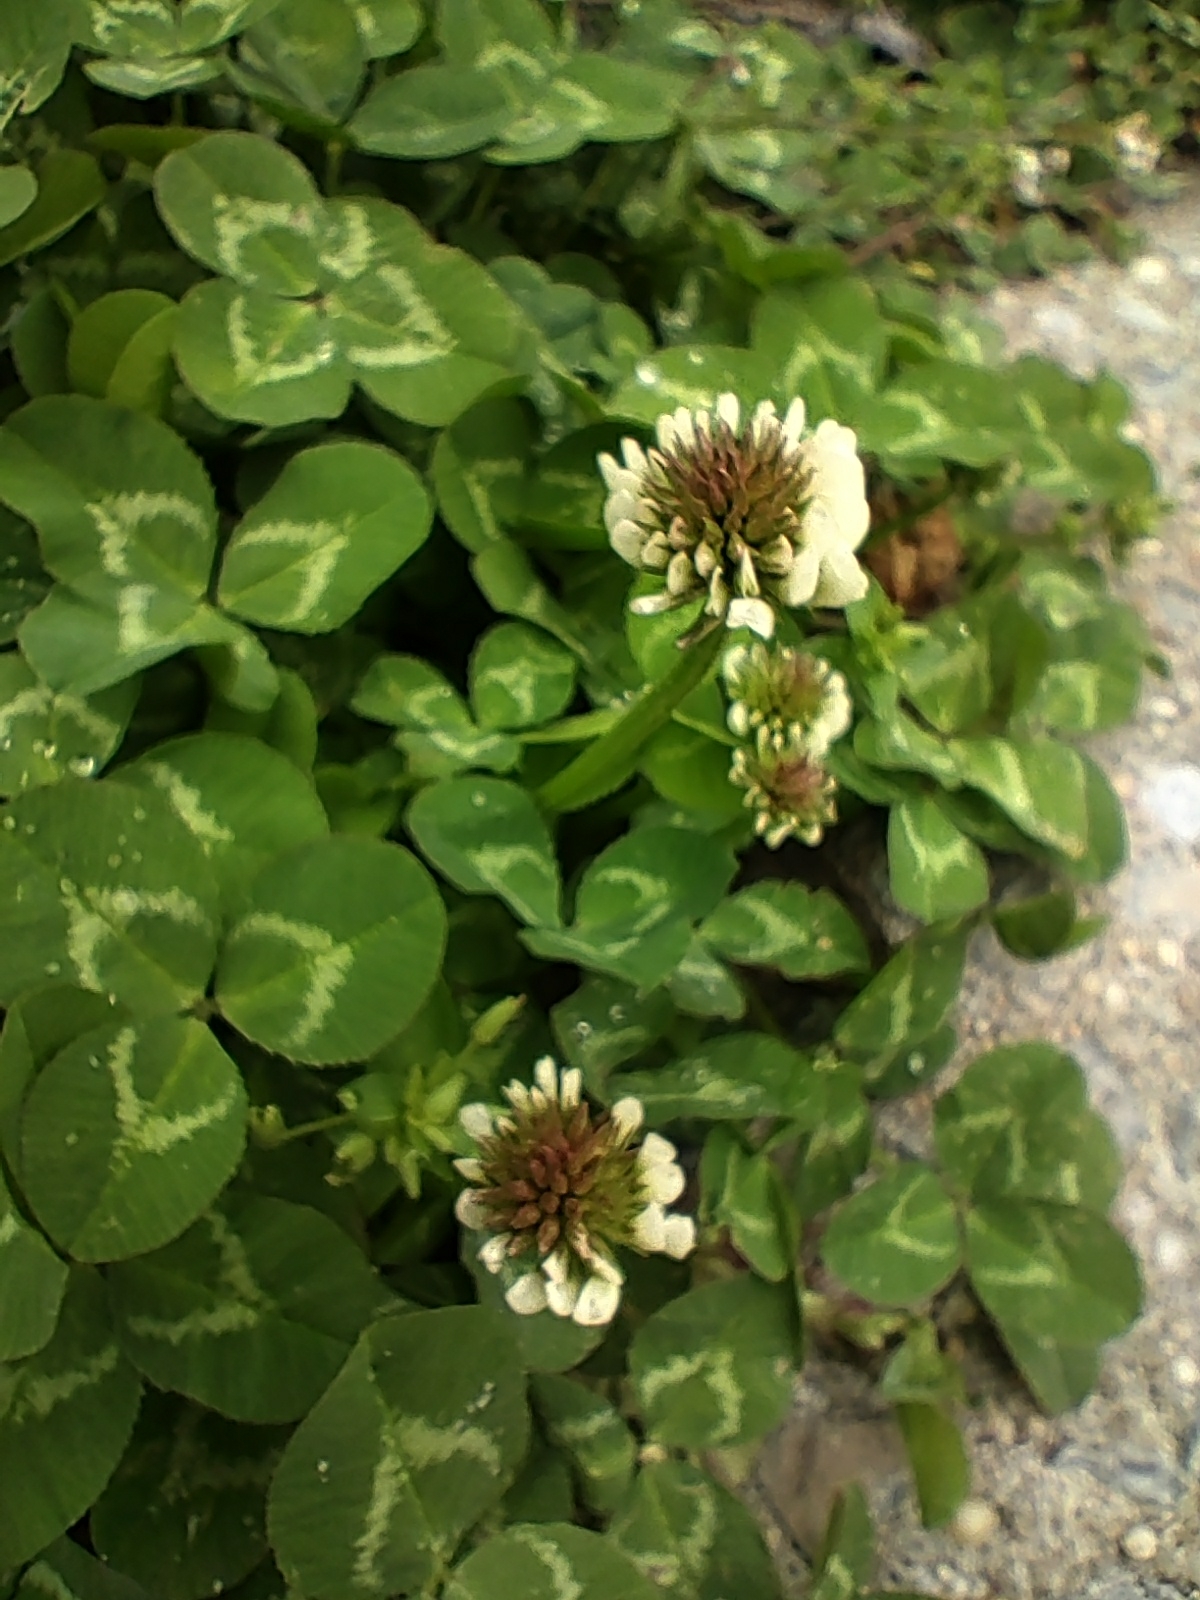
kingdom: Plantae
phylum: Tracheophyta
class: Magnoliopsida
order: Fabales
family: Fabaceae
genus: Trifolium
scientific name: Trifolium repens
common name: White clover
